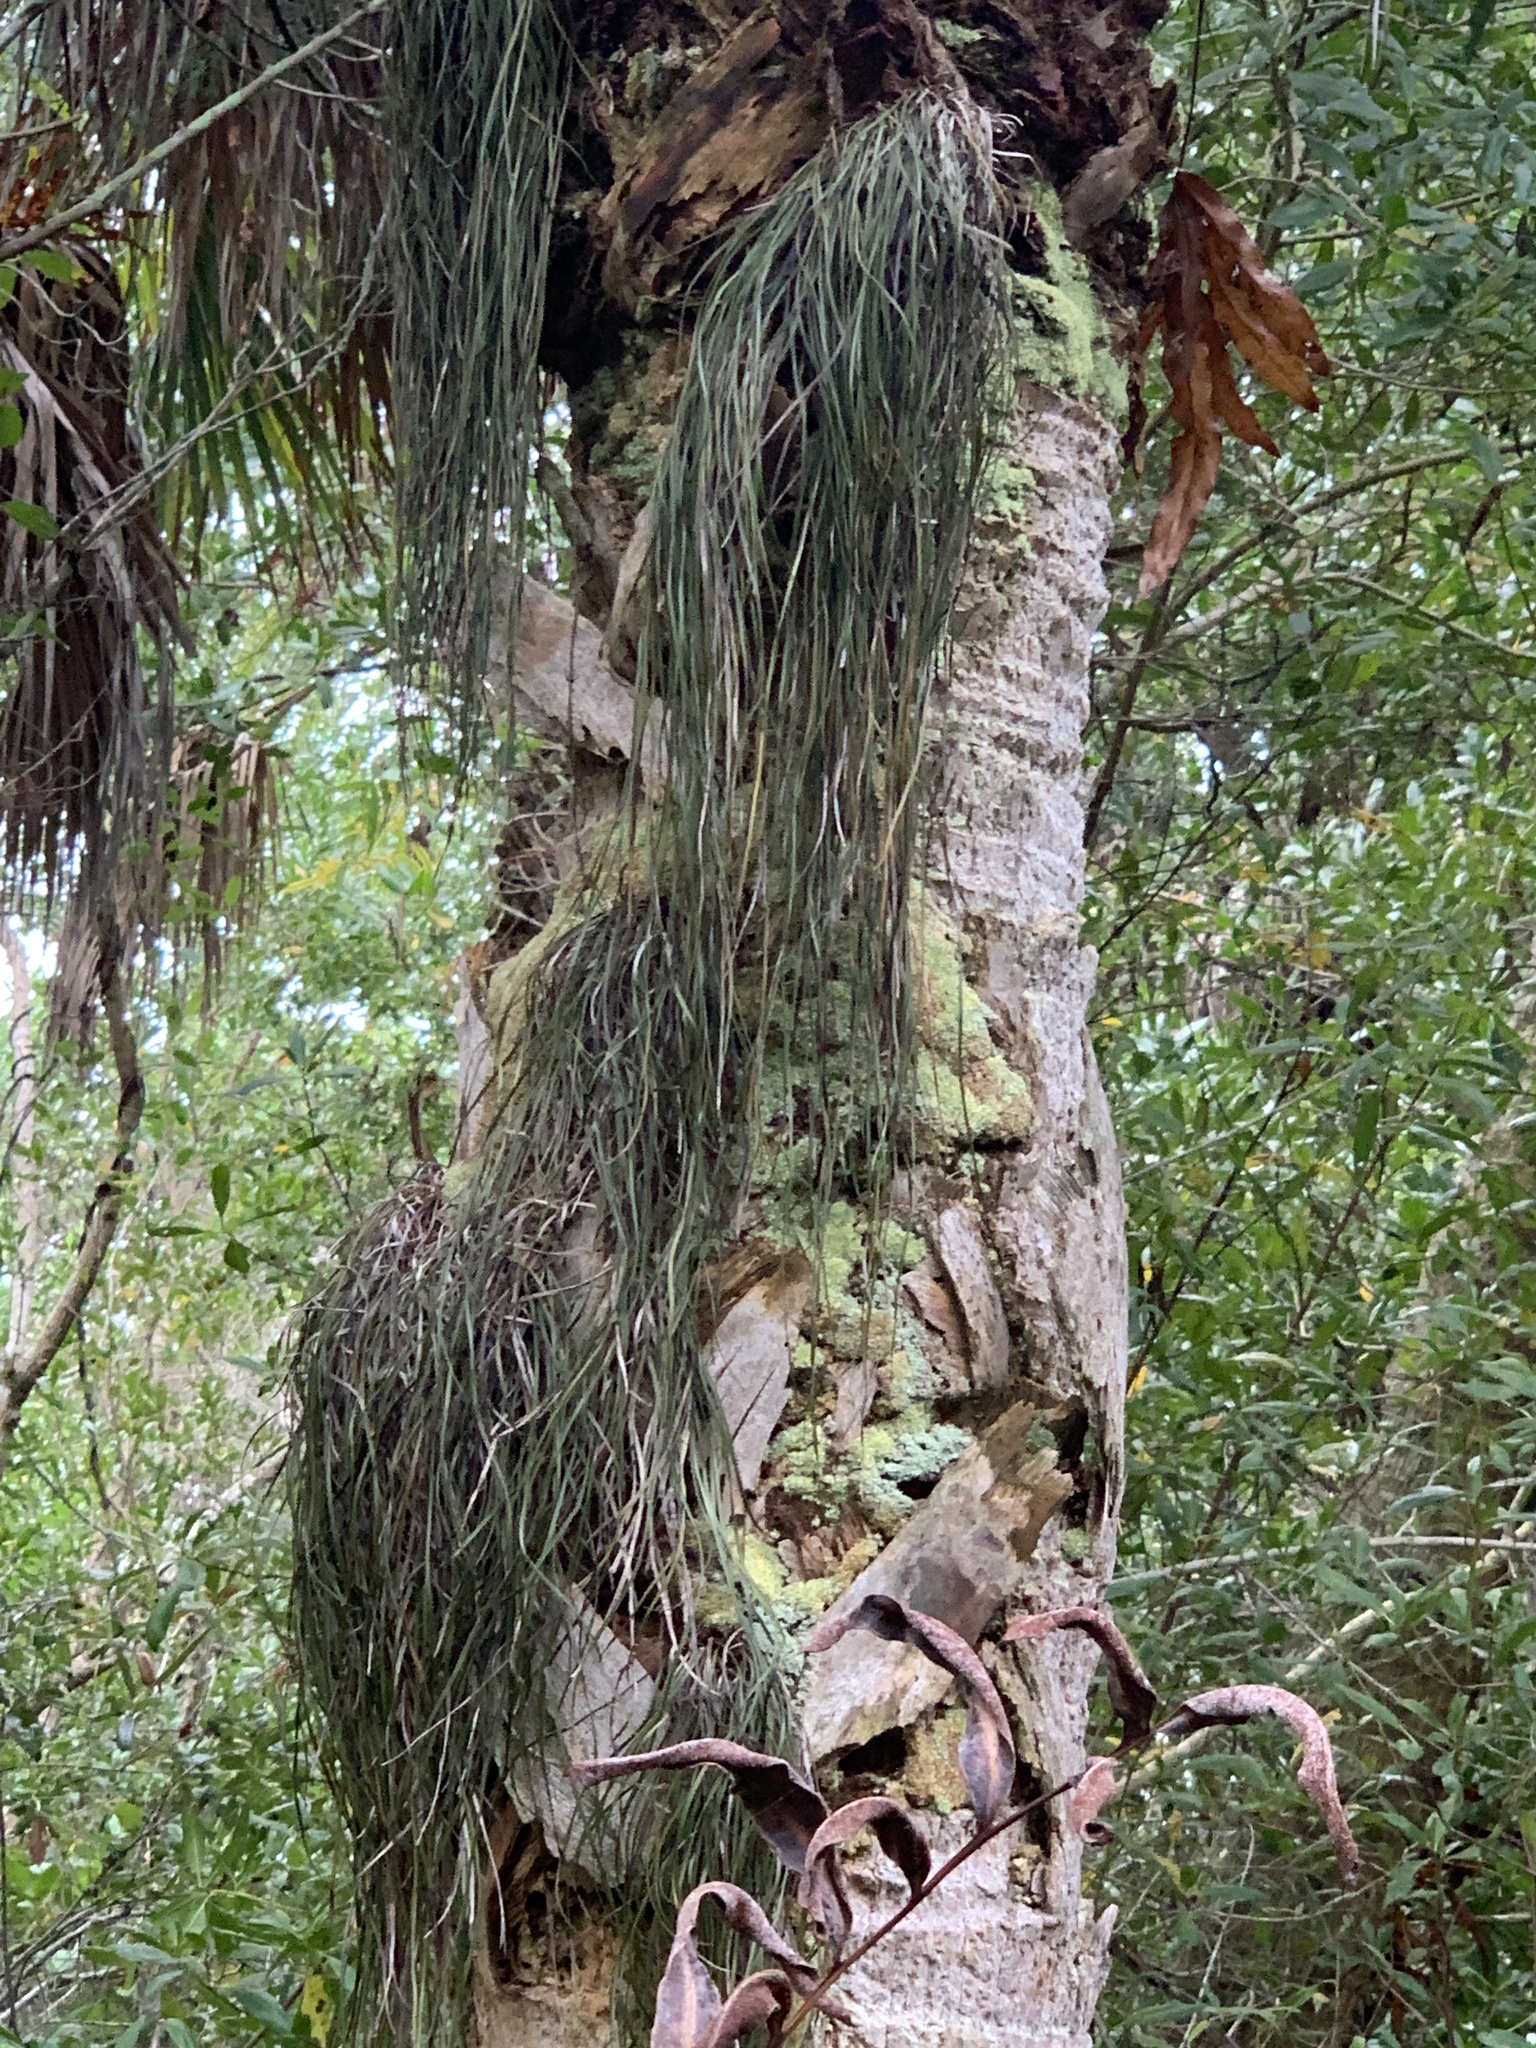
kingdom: Plantae
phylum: Tracheophyta
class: Polypodiopsida
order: Polypodiales
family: Pteridaceae
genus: Vittaria
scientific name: Vittaria lineata
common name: Shoestring fern
